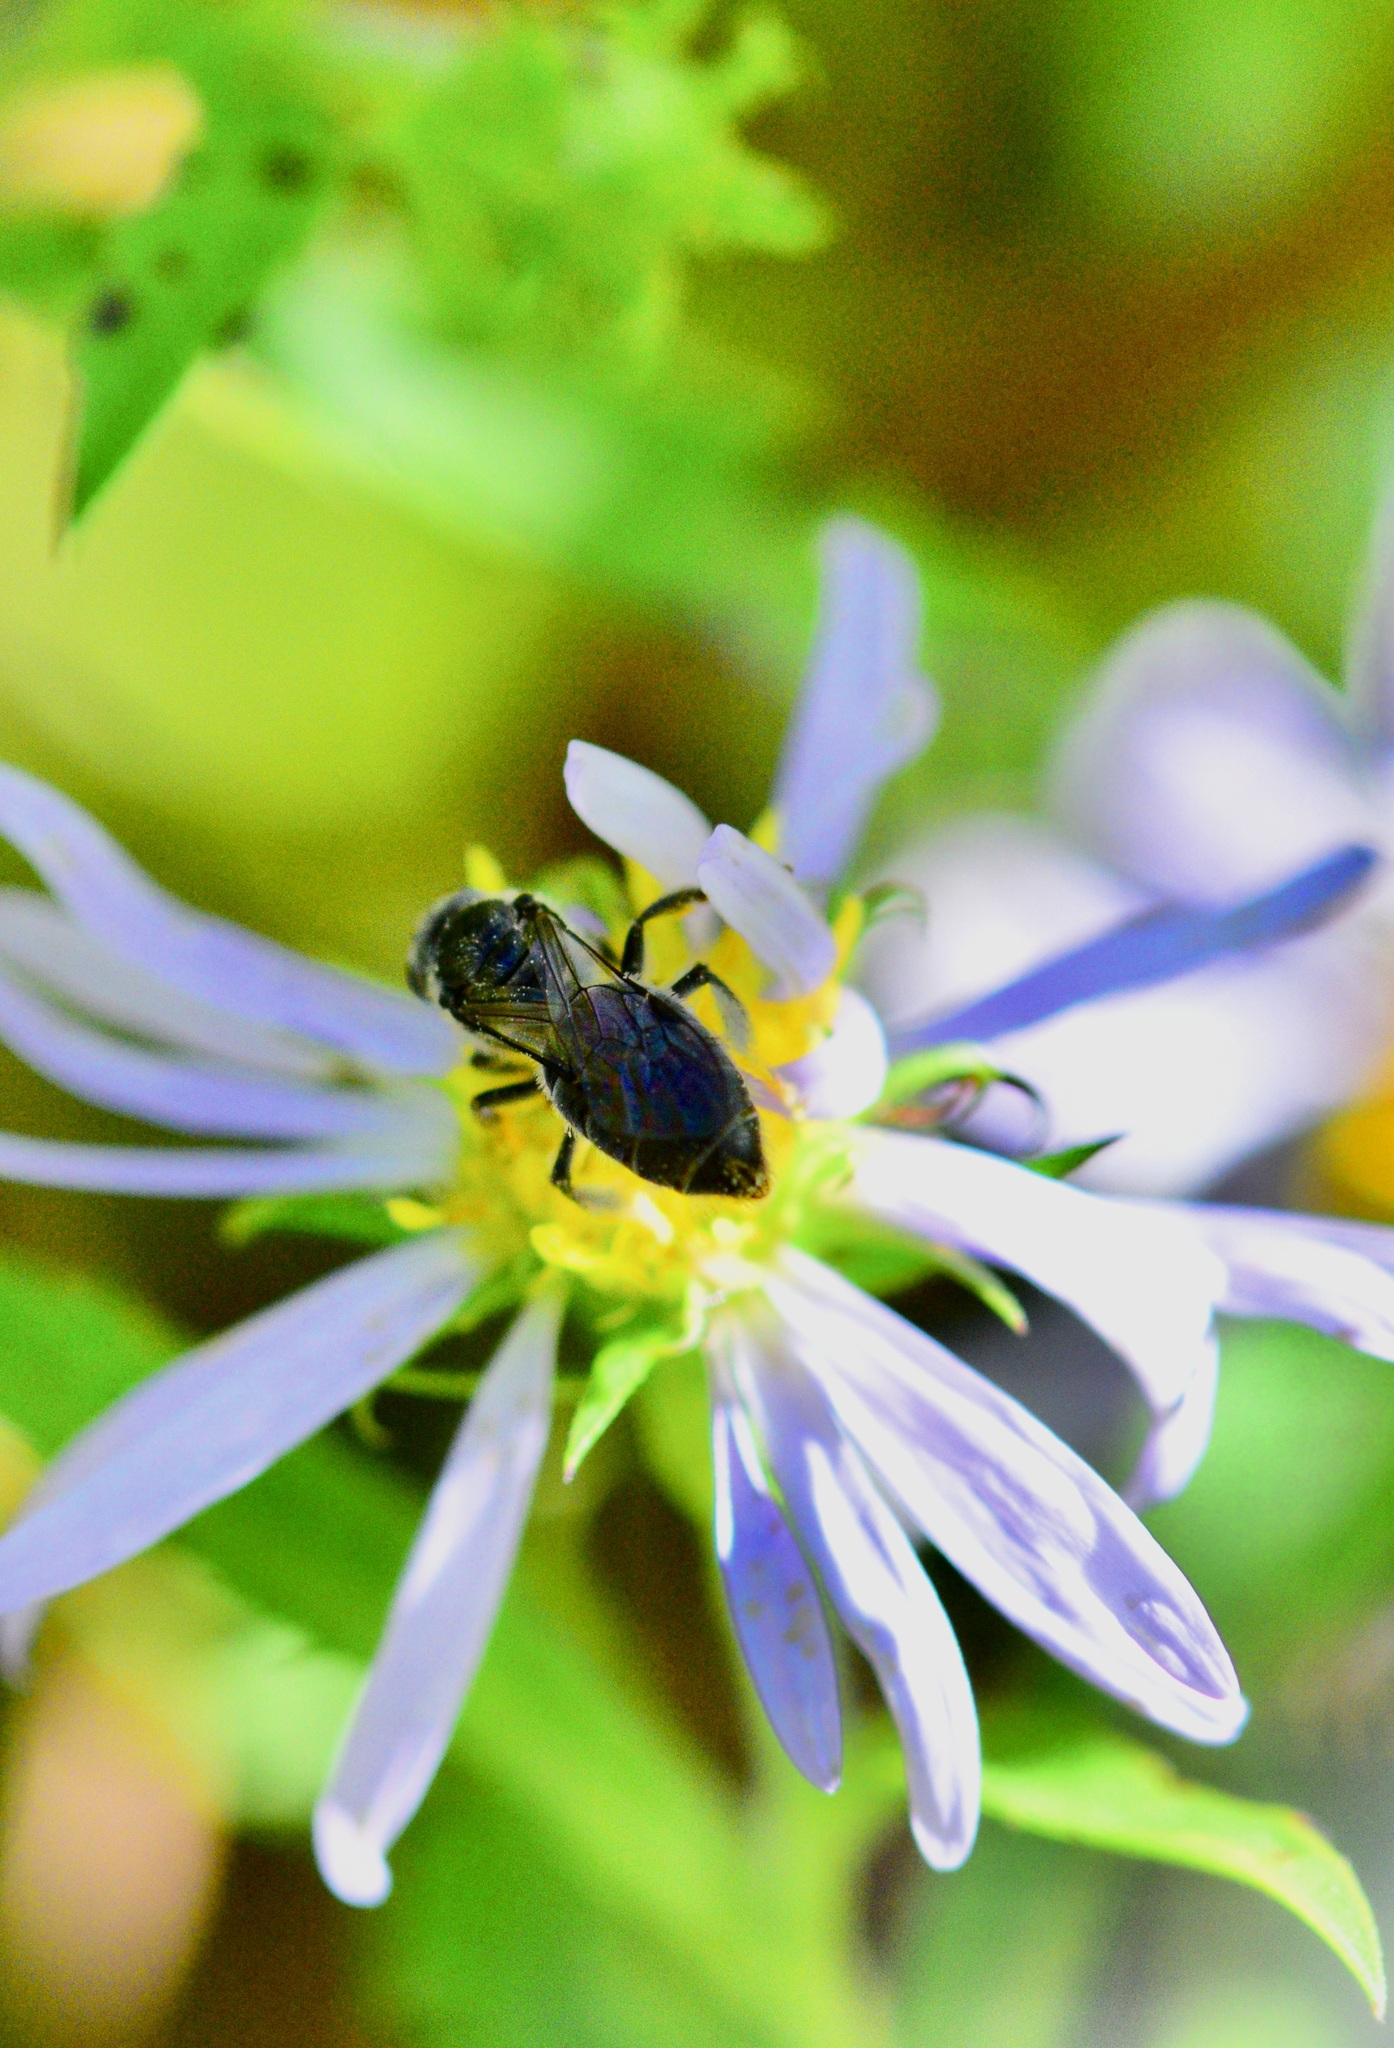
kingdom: Animalia
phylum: Arthropoda
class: Insecta
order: Hymenoptera
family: Halictidae
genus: Lasioglossum
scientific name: Lasioglossum pectinatum
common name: Ground cherry sweat bee
